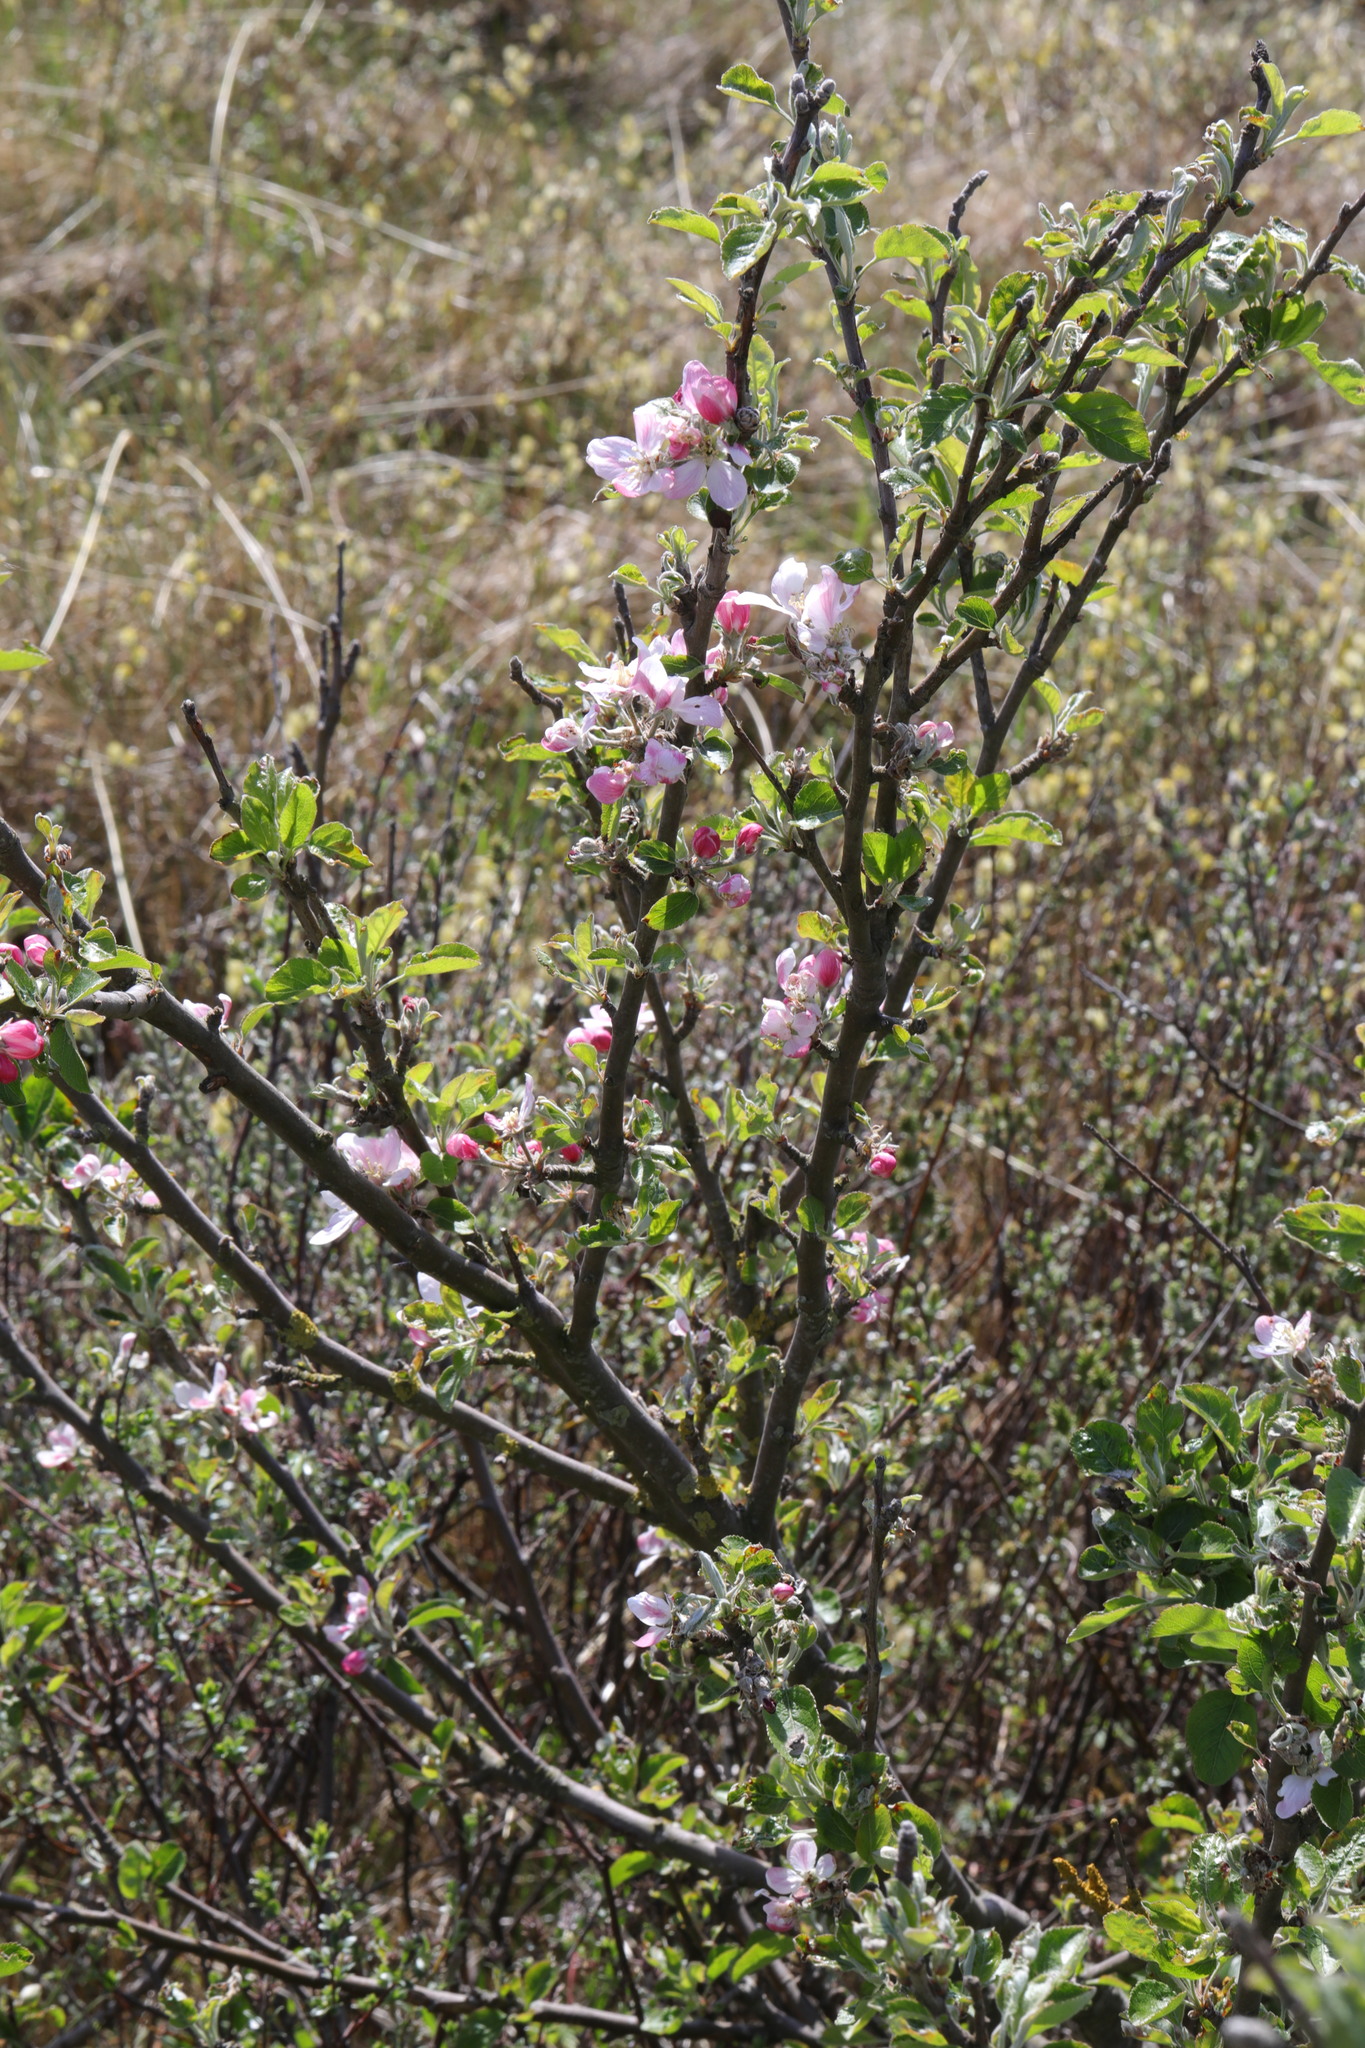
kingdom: Plantae
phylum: Tracheophyta
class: Magnoliopsida
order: Rosales
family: Rosaceae
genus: Malus
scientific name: Malus domestica
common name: Apple
